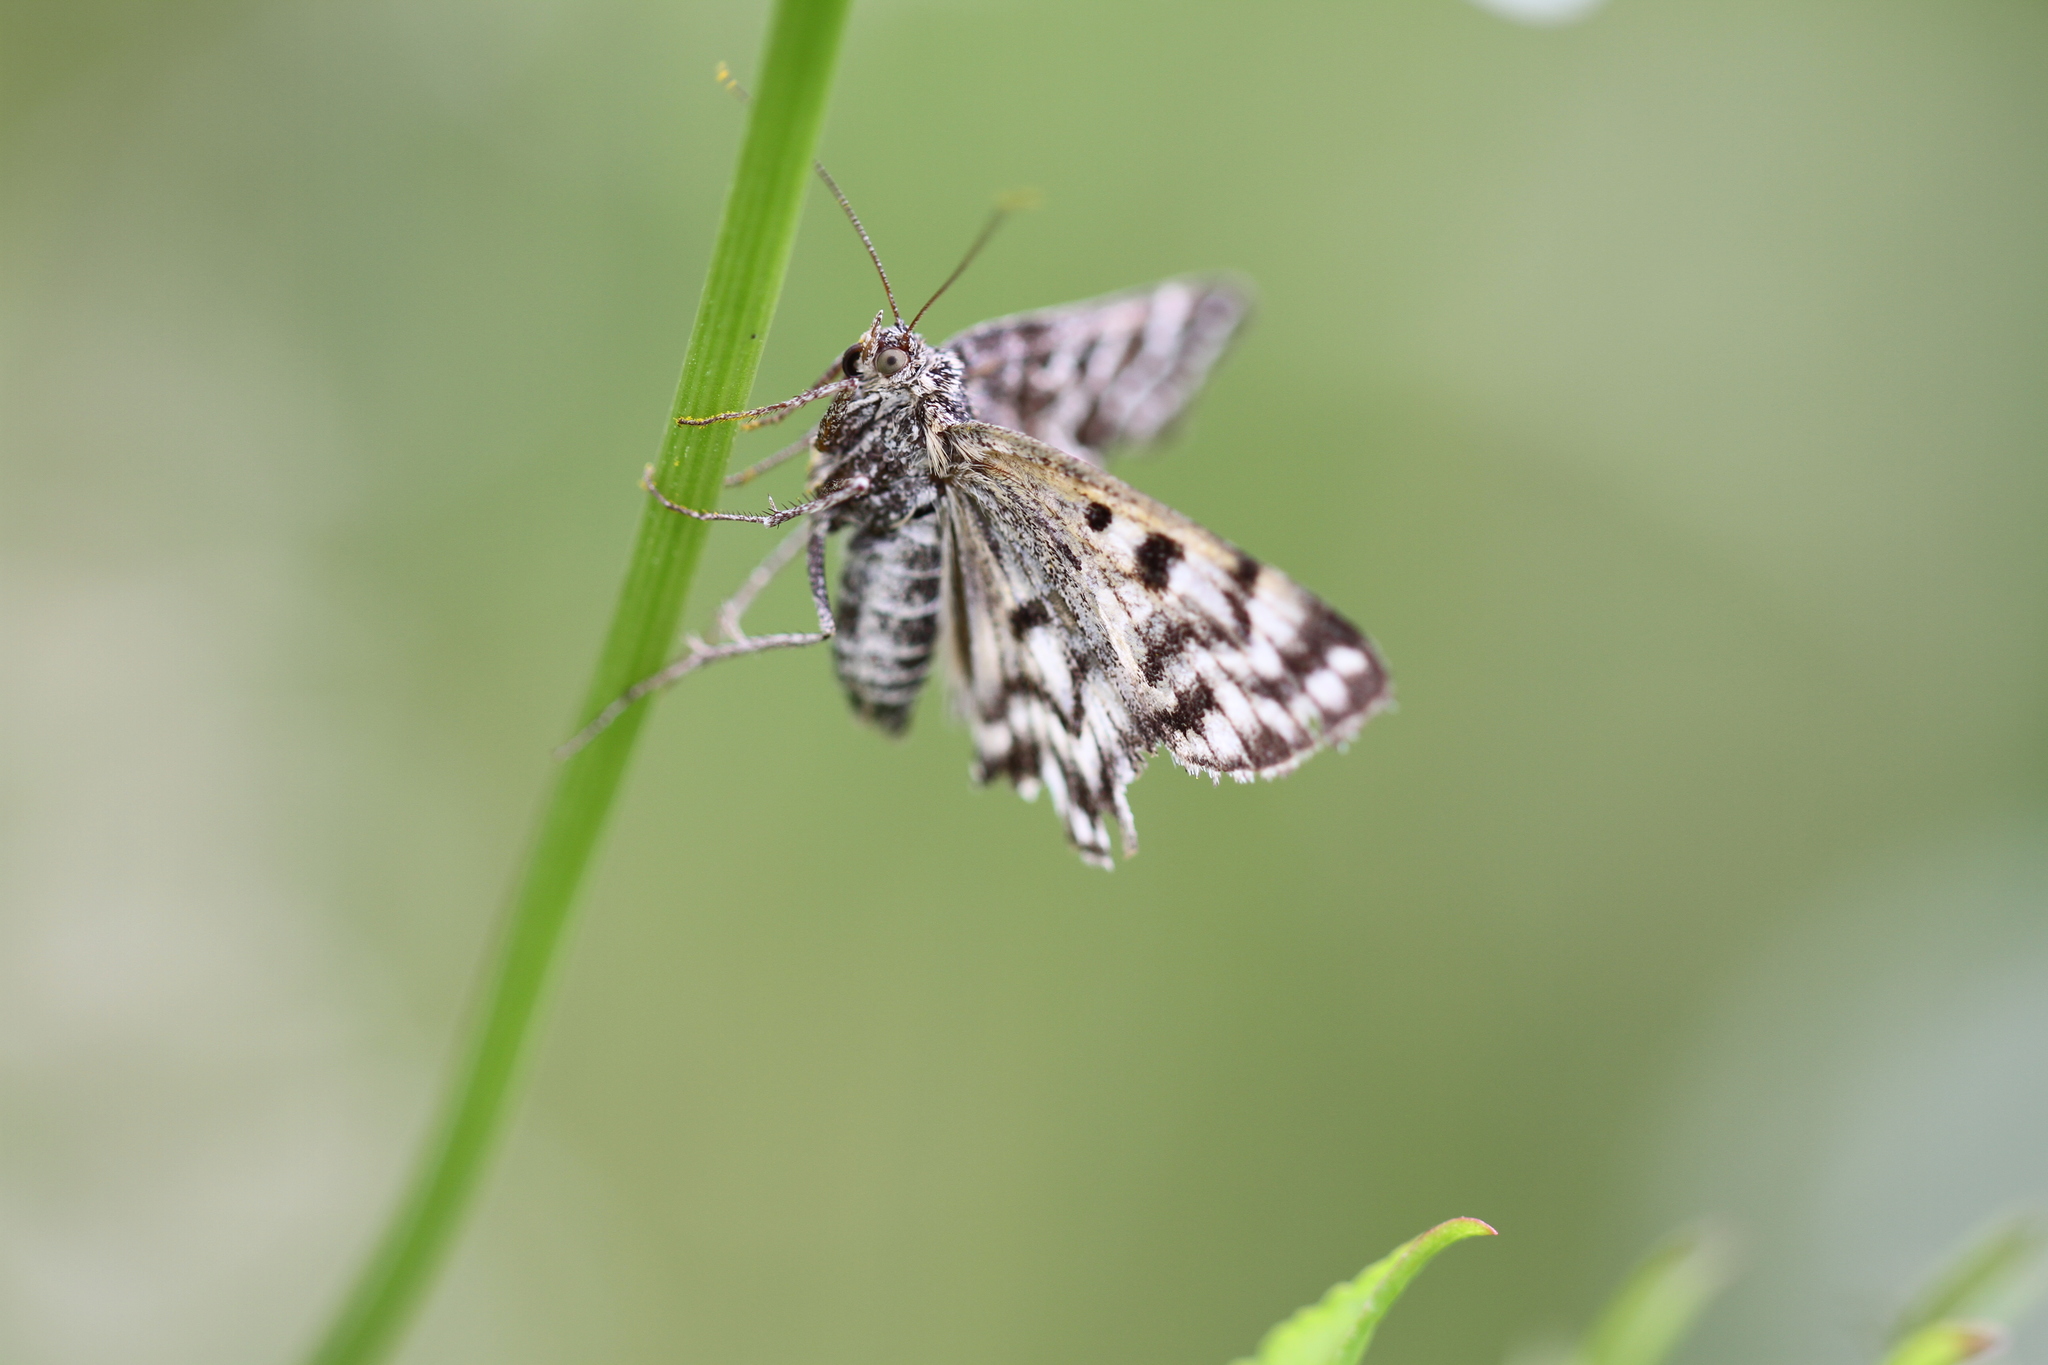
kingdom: Animalia
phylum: Arthropoda
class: Insecta
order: Lepidoptera
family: Erebidae
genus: Callistege
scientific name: Callistege mi
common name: Mother shipton
